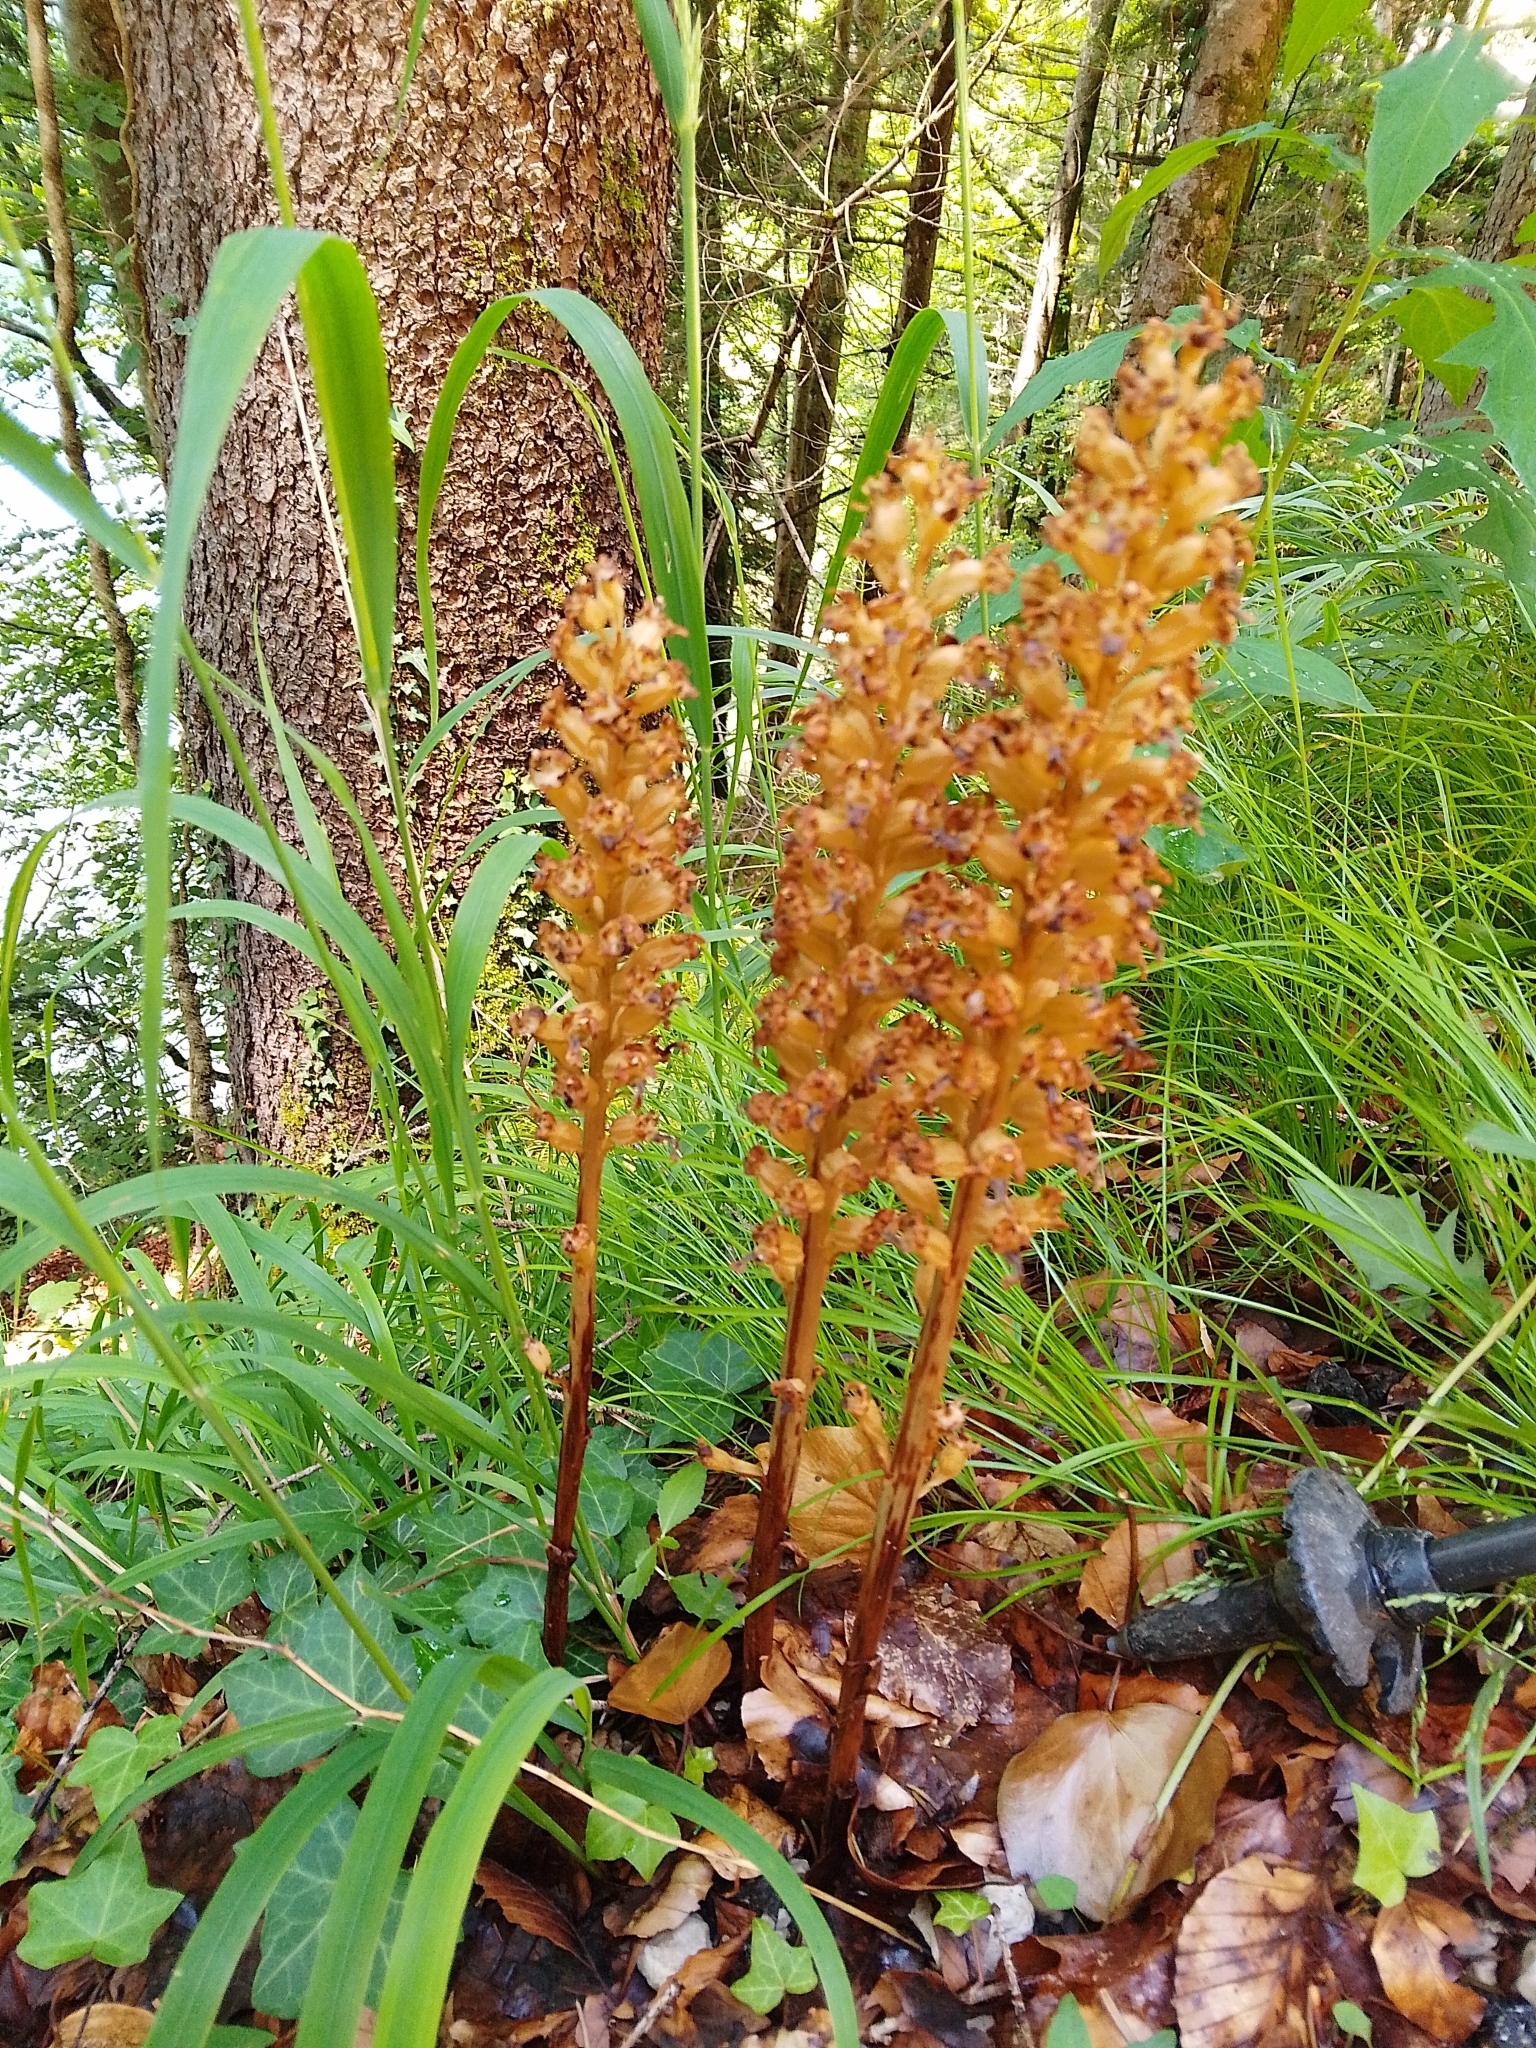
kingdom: Plantae
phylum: Tracheophyta
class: Liliopsida
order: Asparagales
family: Orchidaceae
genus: Neottia
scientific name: Neottia nidus-avis
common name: Bird's-nest orchid
